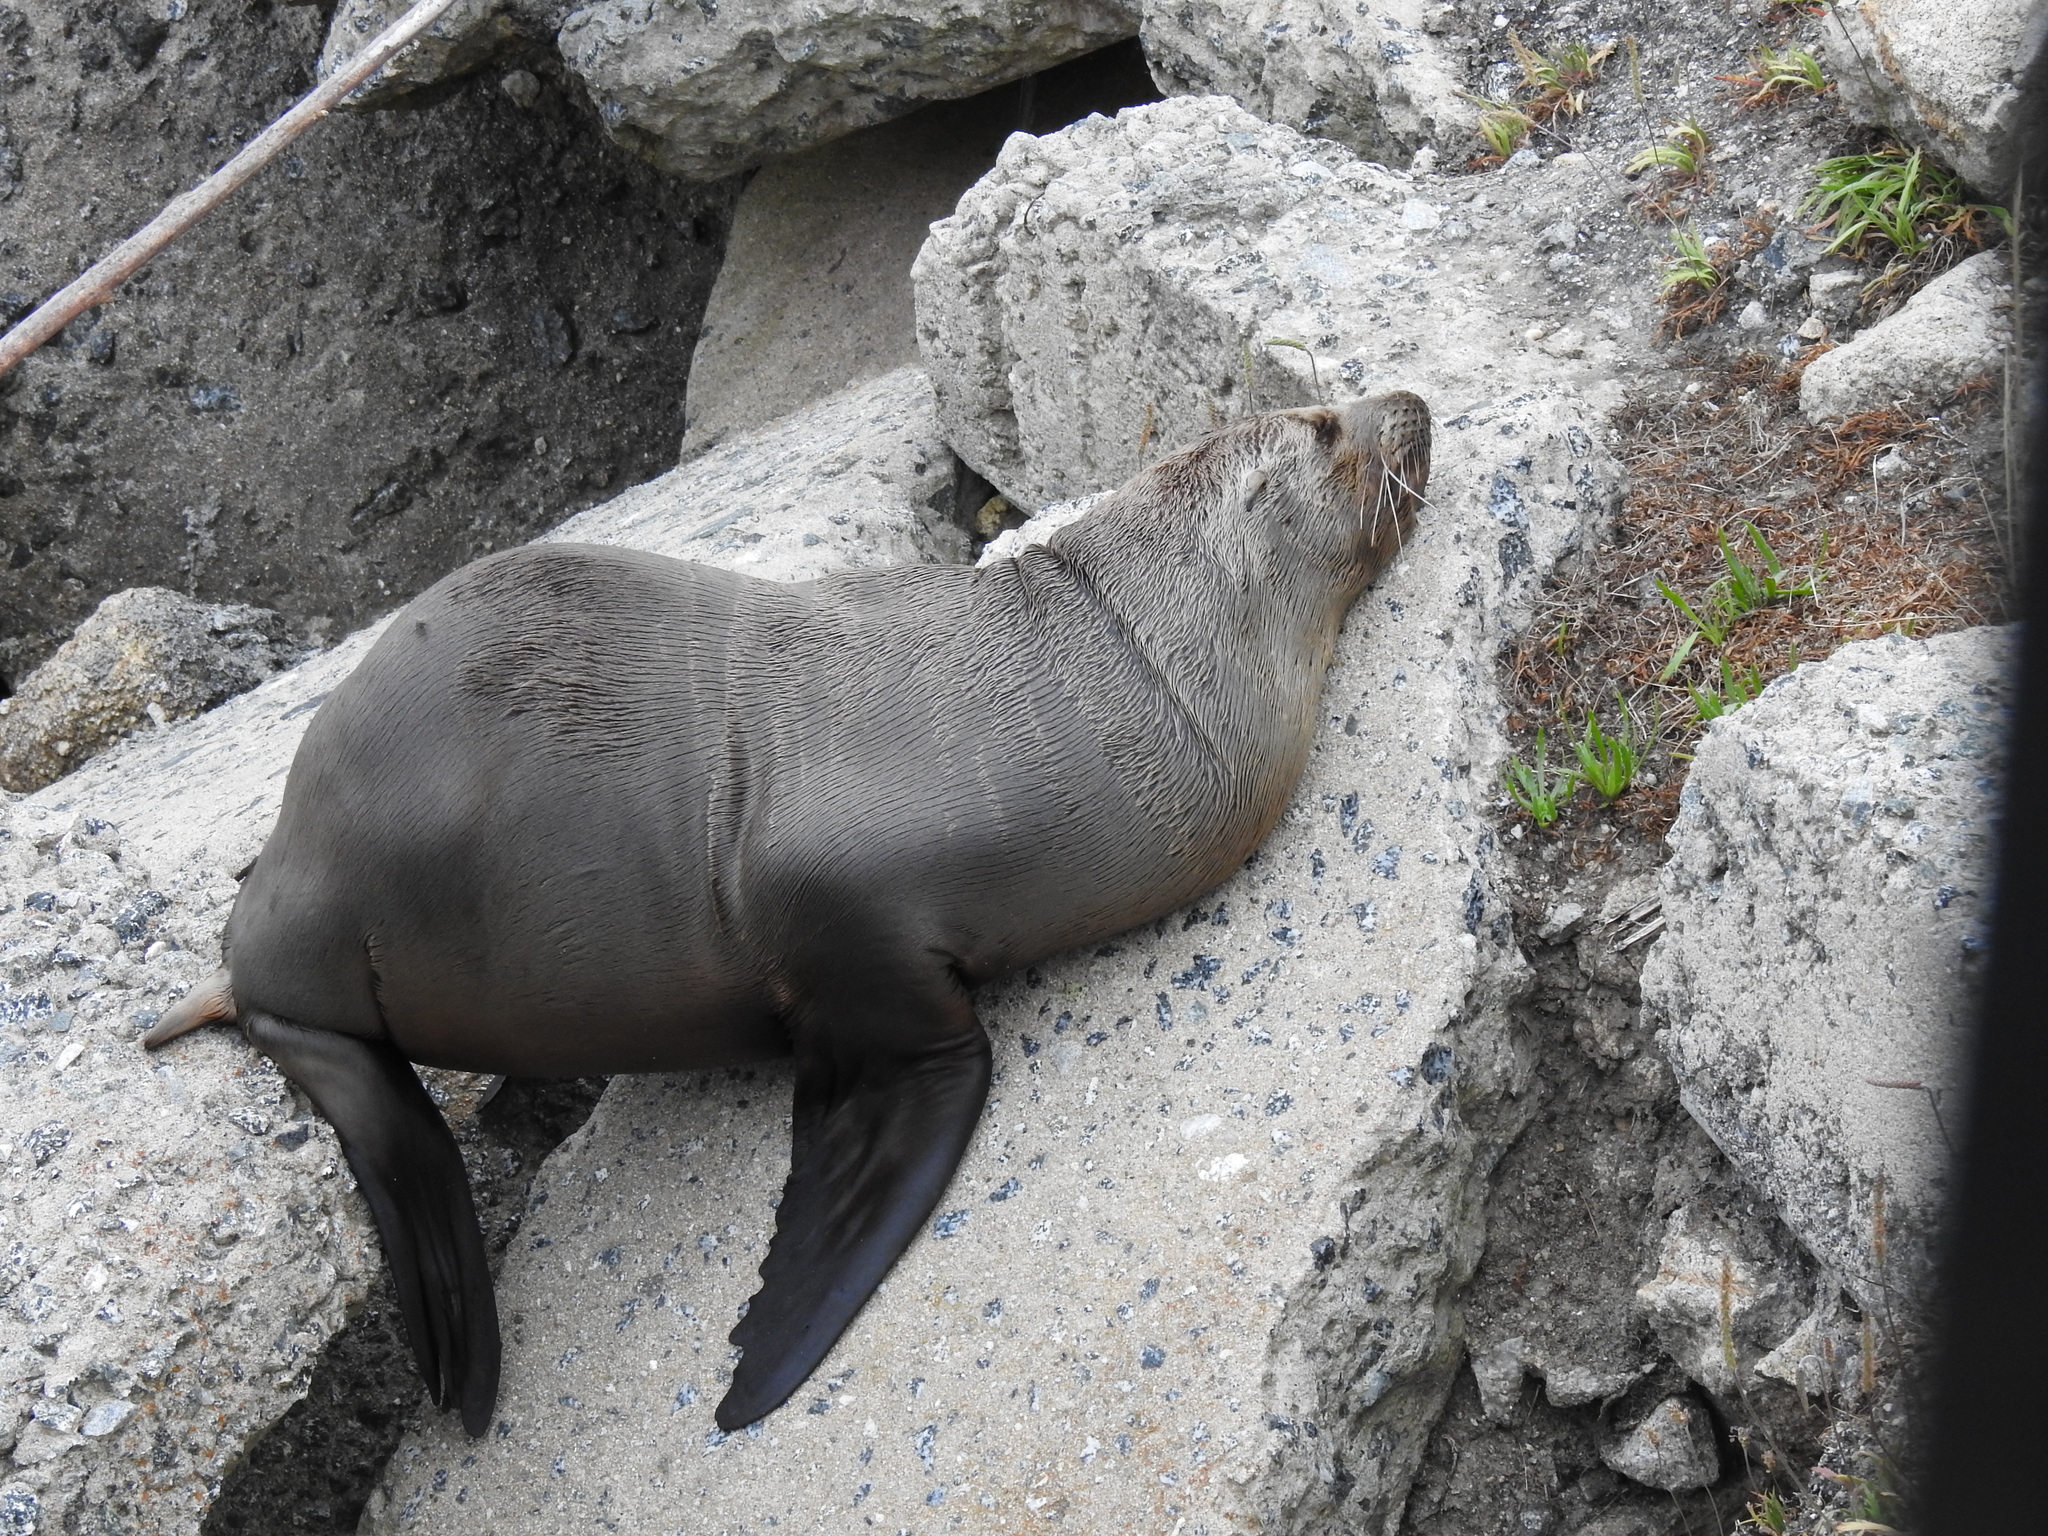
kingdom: Animalia
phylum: Chordata
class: Mammalia
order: Carnivora
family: Otariidae
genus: Zalophus
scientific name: Zalophus californianus
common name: California sea lion
